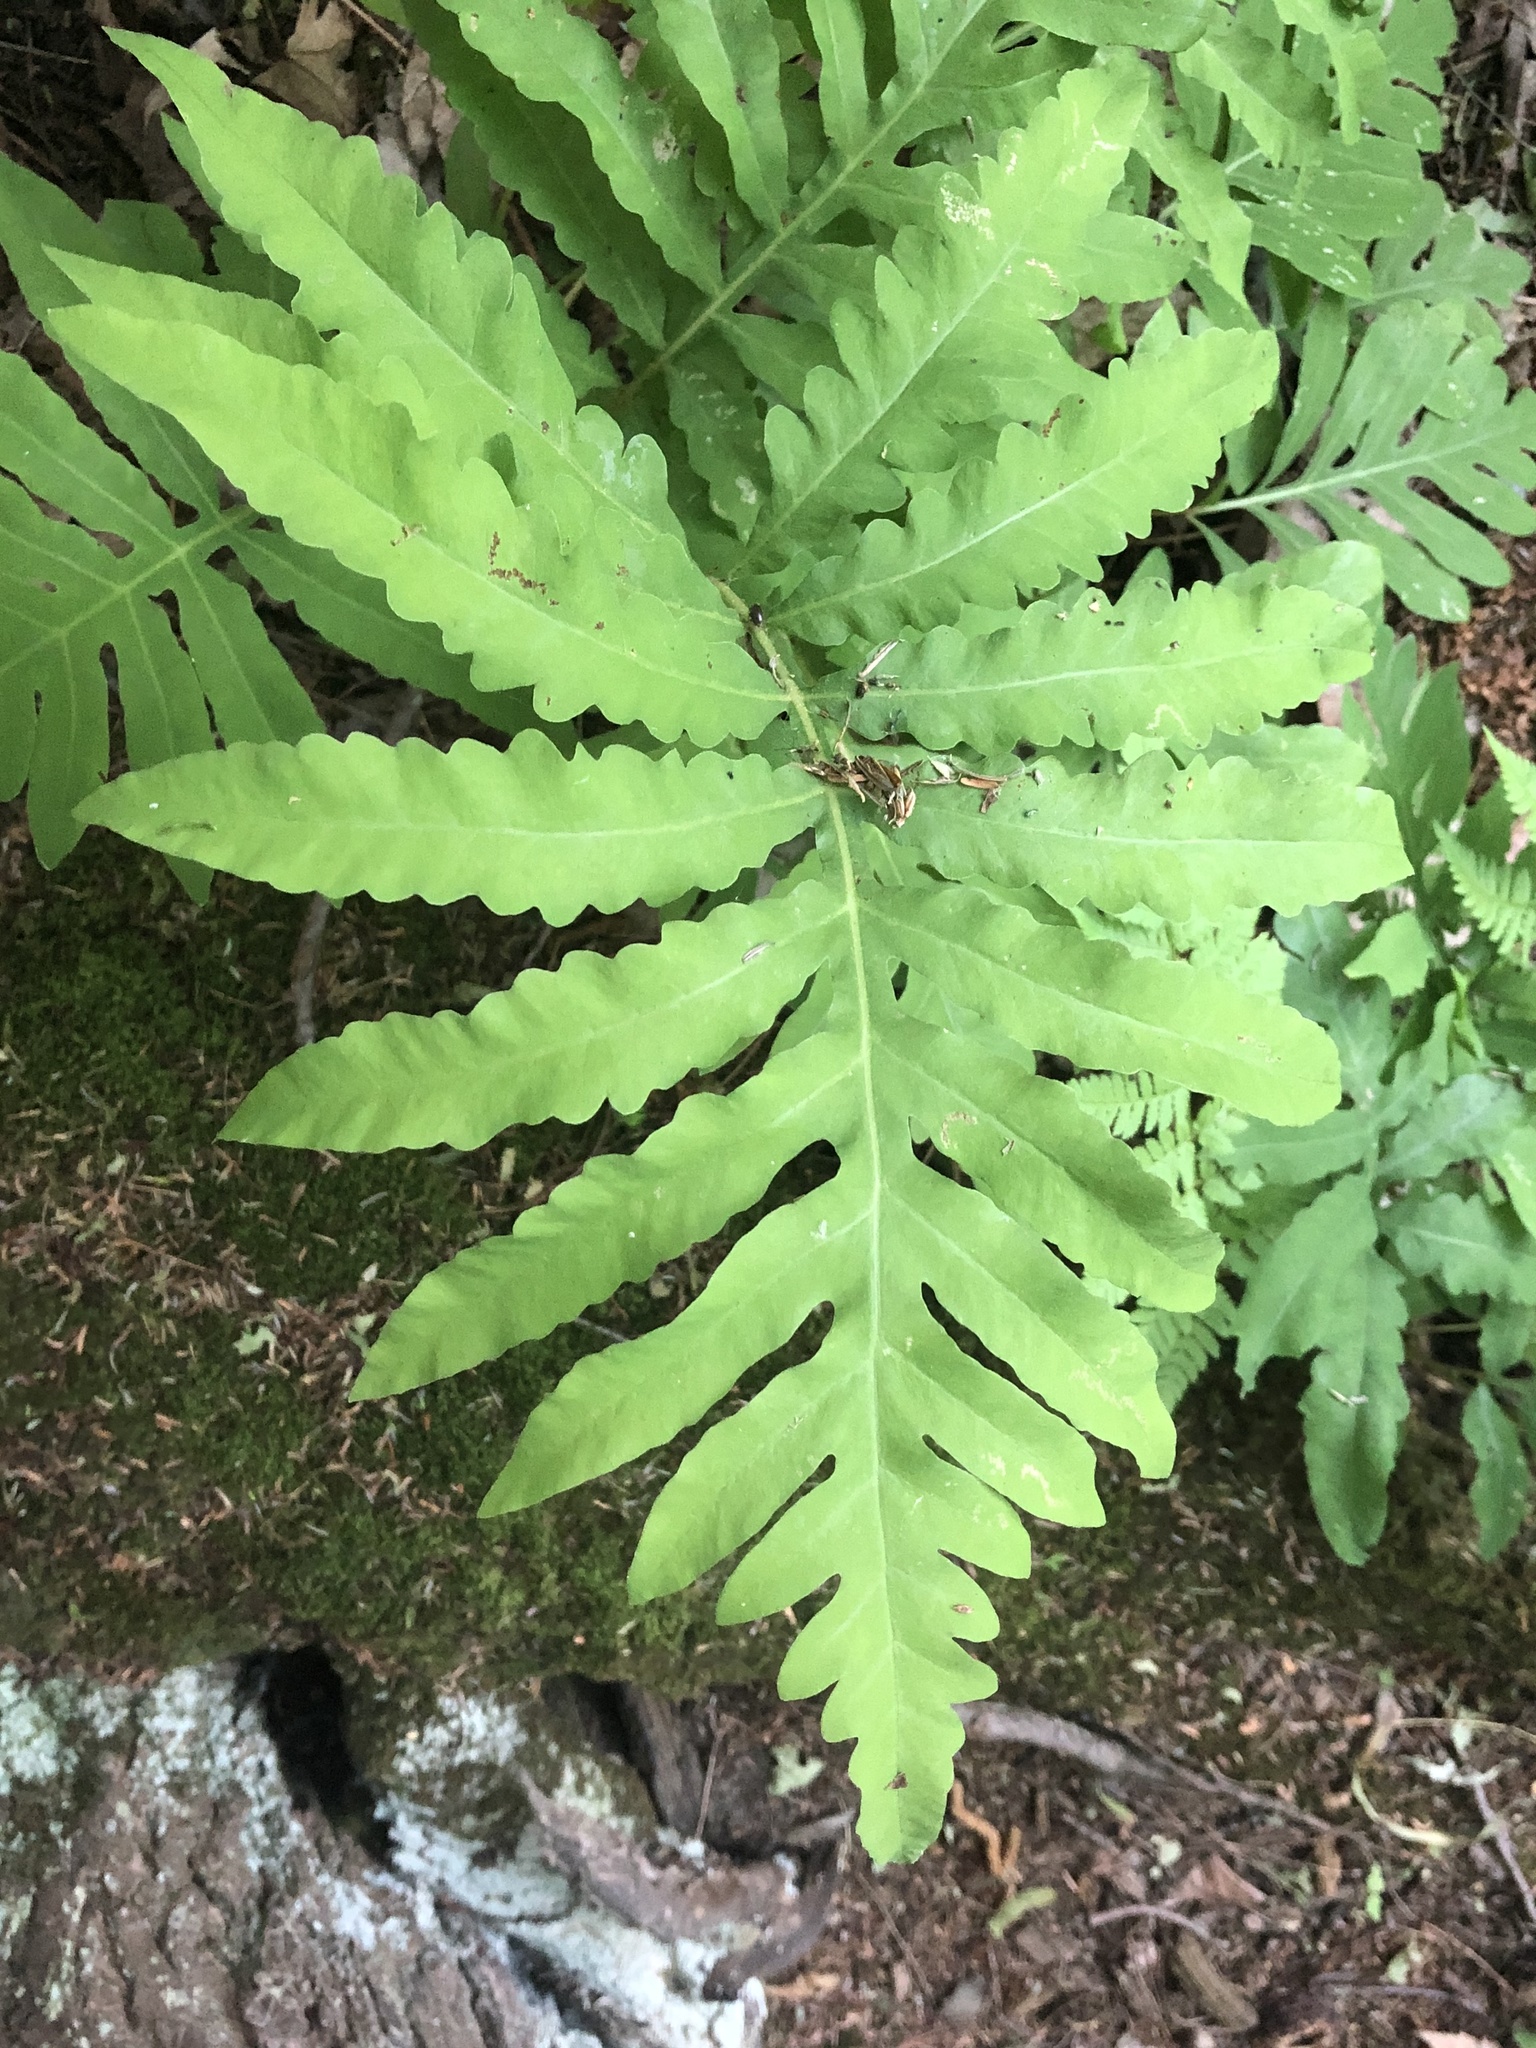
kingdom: Plantae
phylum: Tracheophyta
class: Polypodiopsida
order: Polypodiales
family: Onocleaceae
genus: Onoclea
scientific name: Onoclea sensibilis
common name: Sensitive fern
